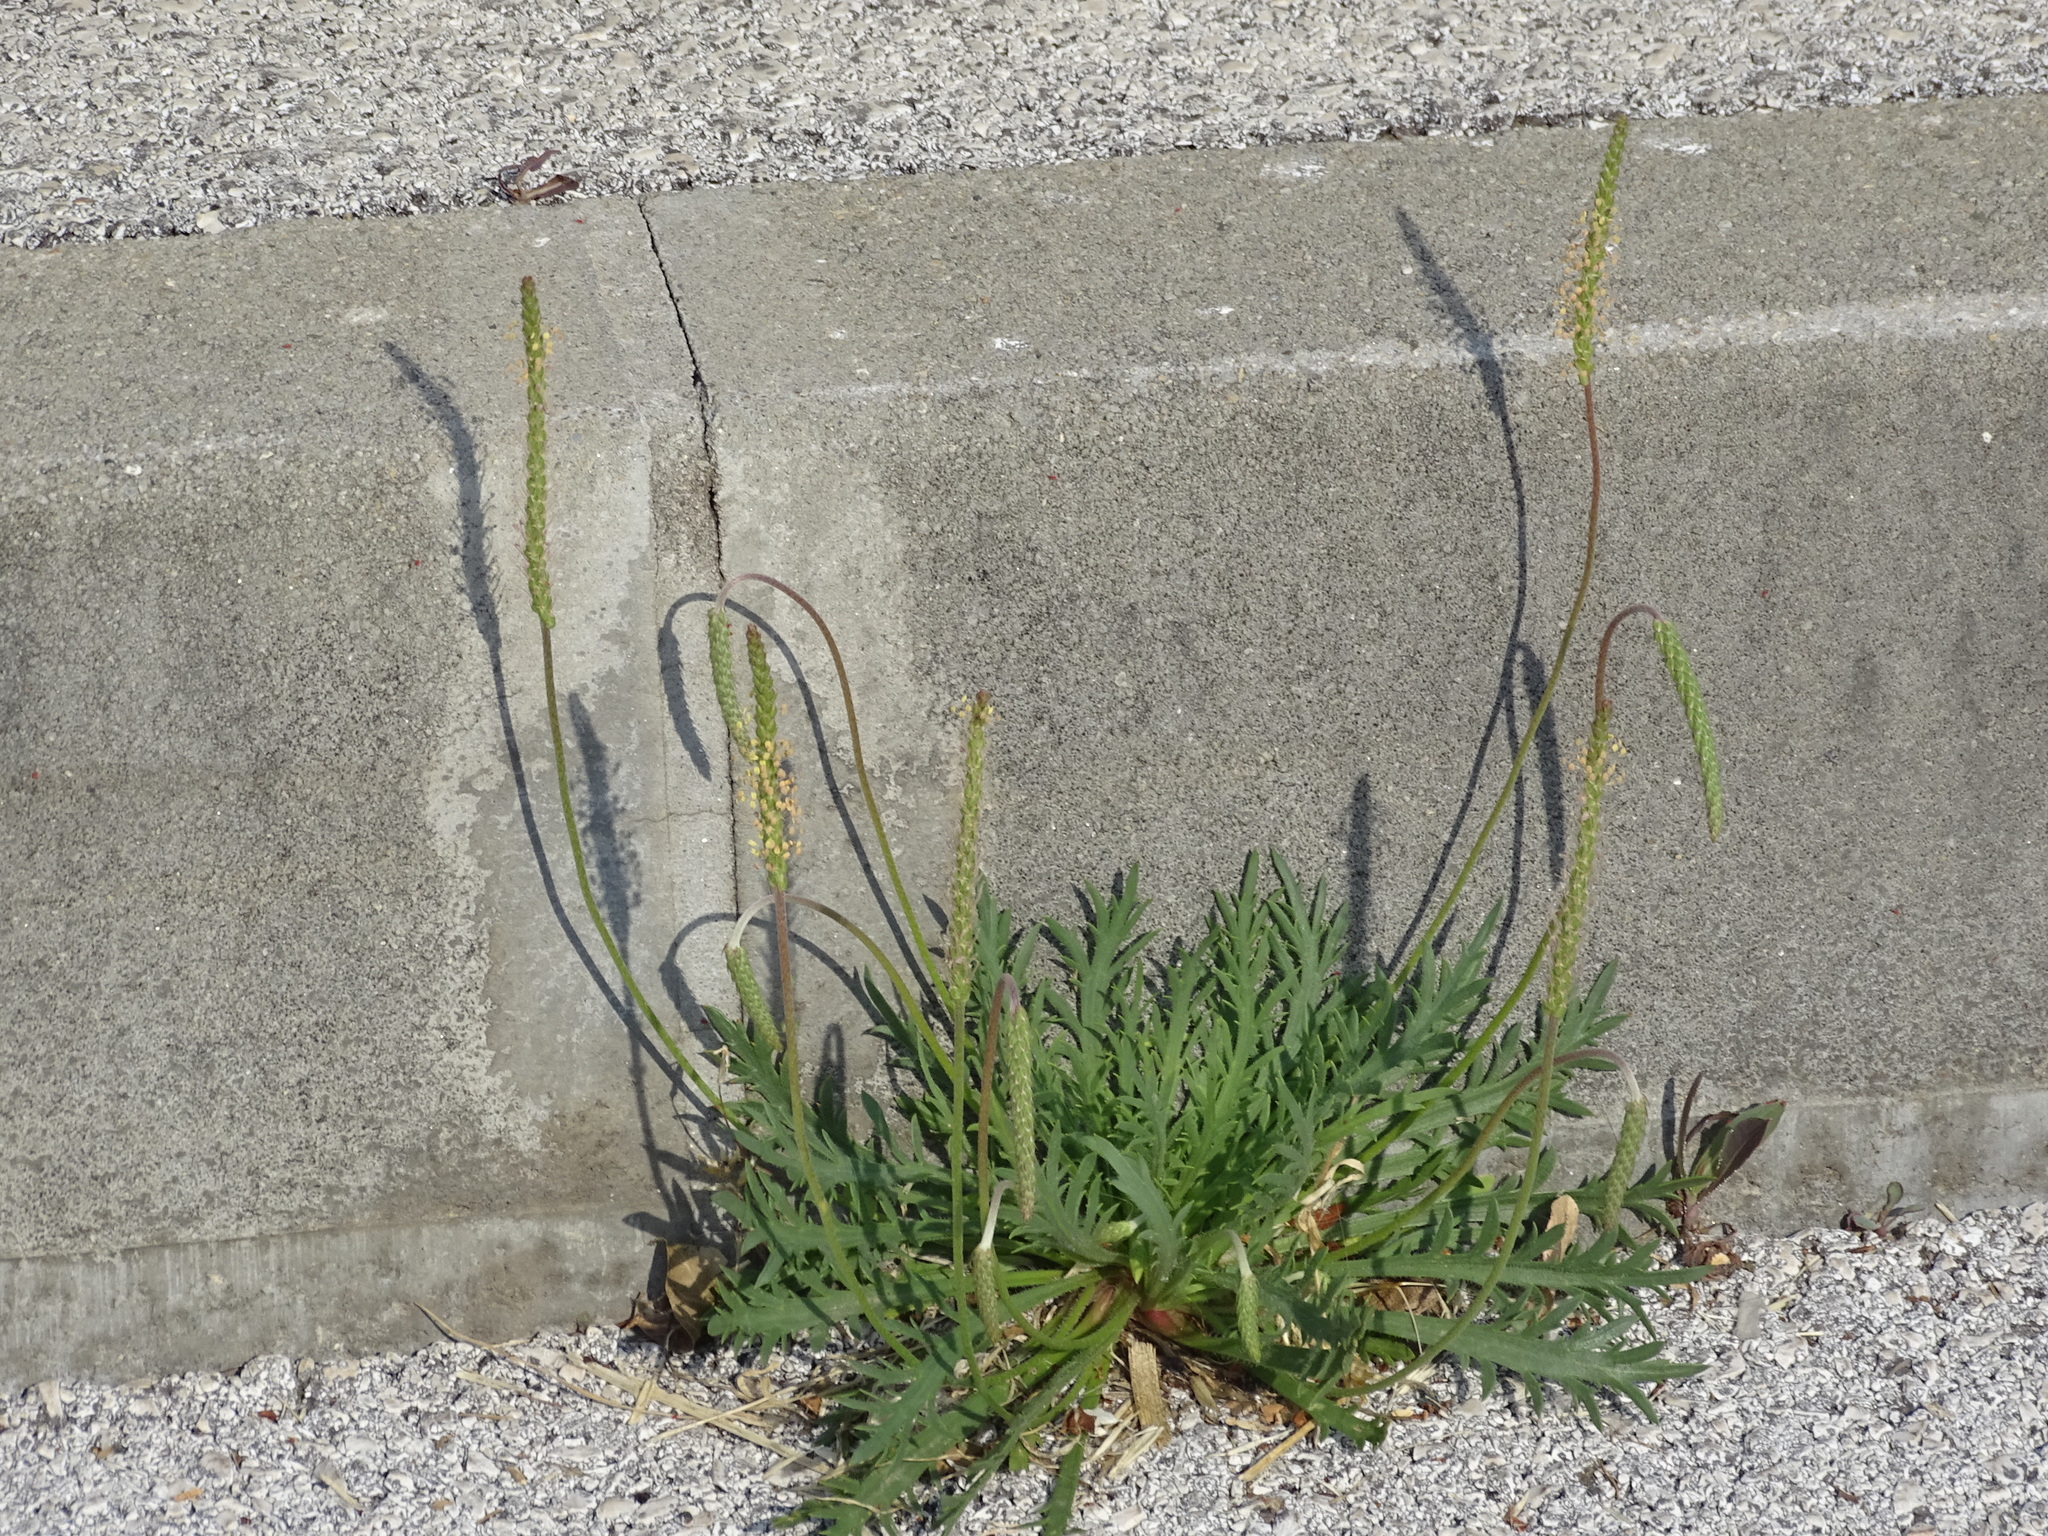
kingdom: Plantae
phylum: Tracheophyta
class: Magnoliopsida
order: Lamiales
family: Plantaginaceae
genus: Plantago
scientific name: Plantago coronopus
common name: Buck's-horn plantain
